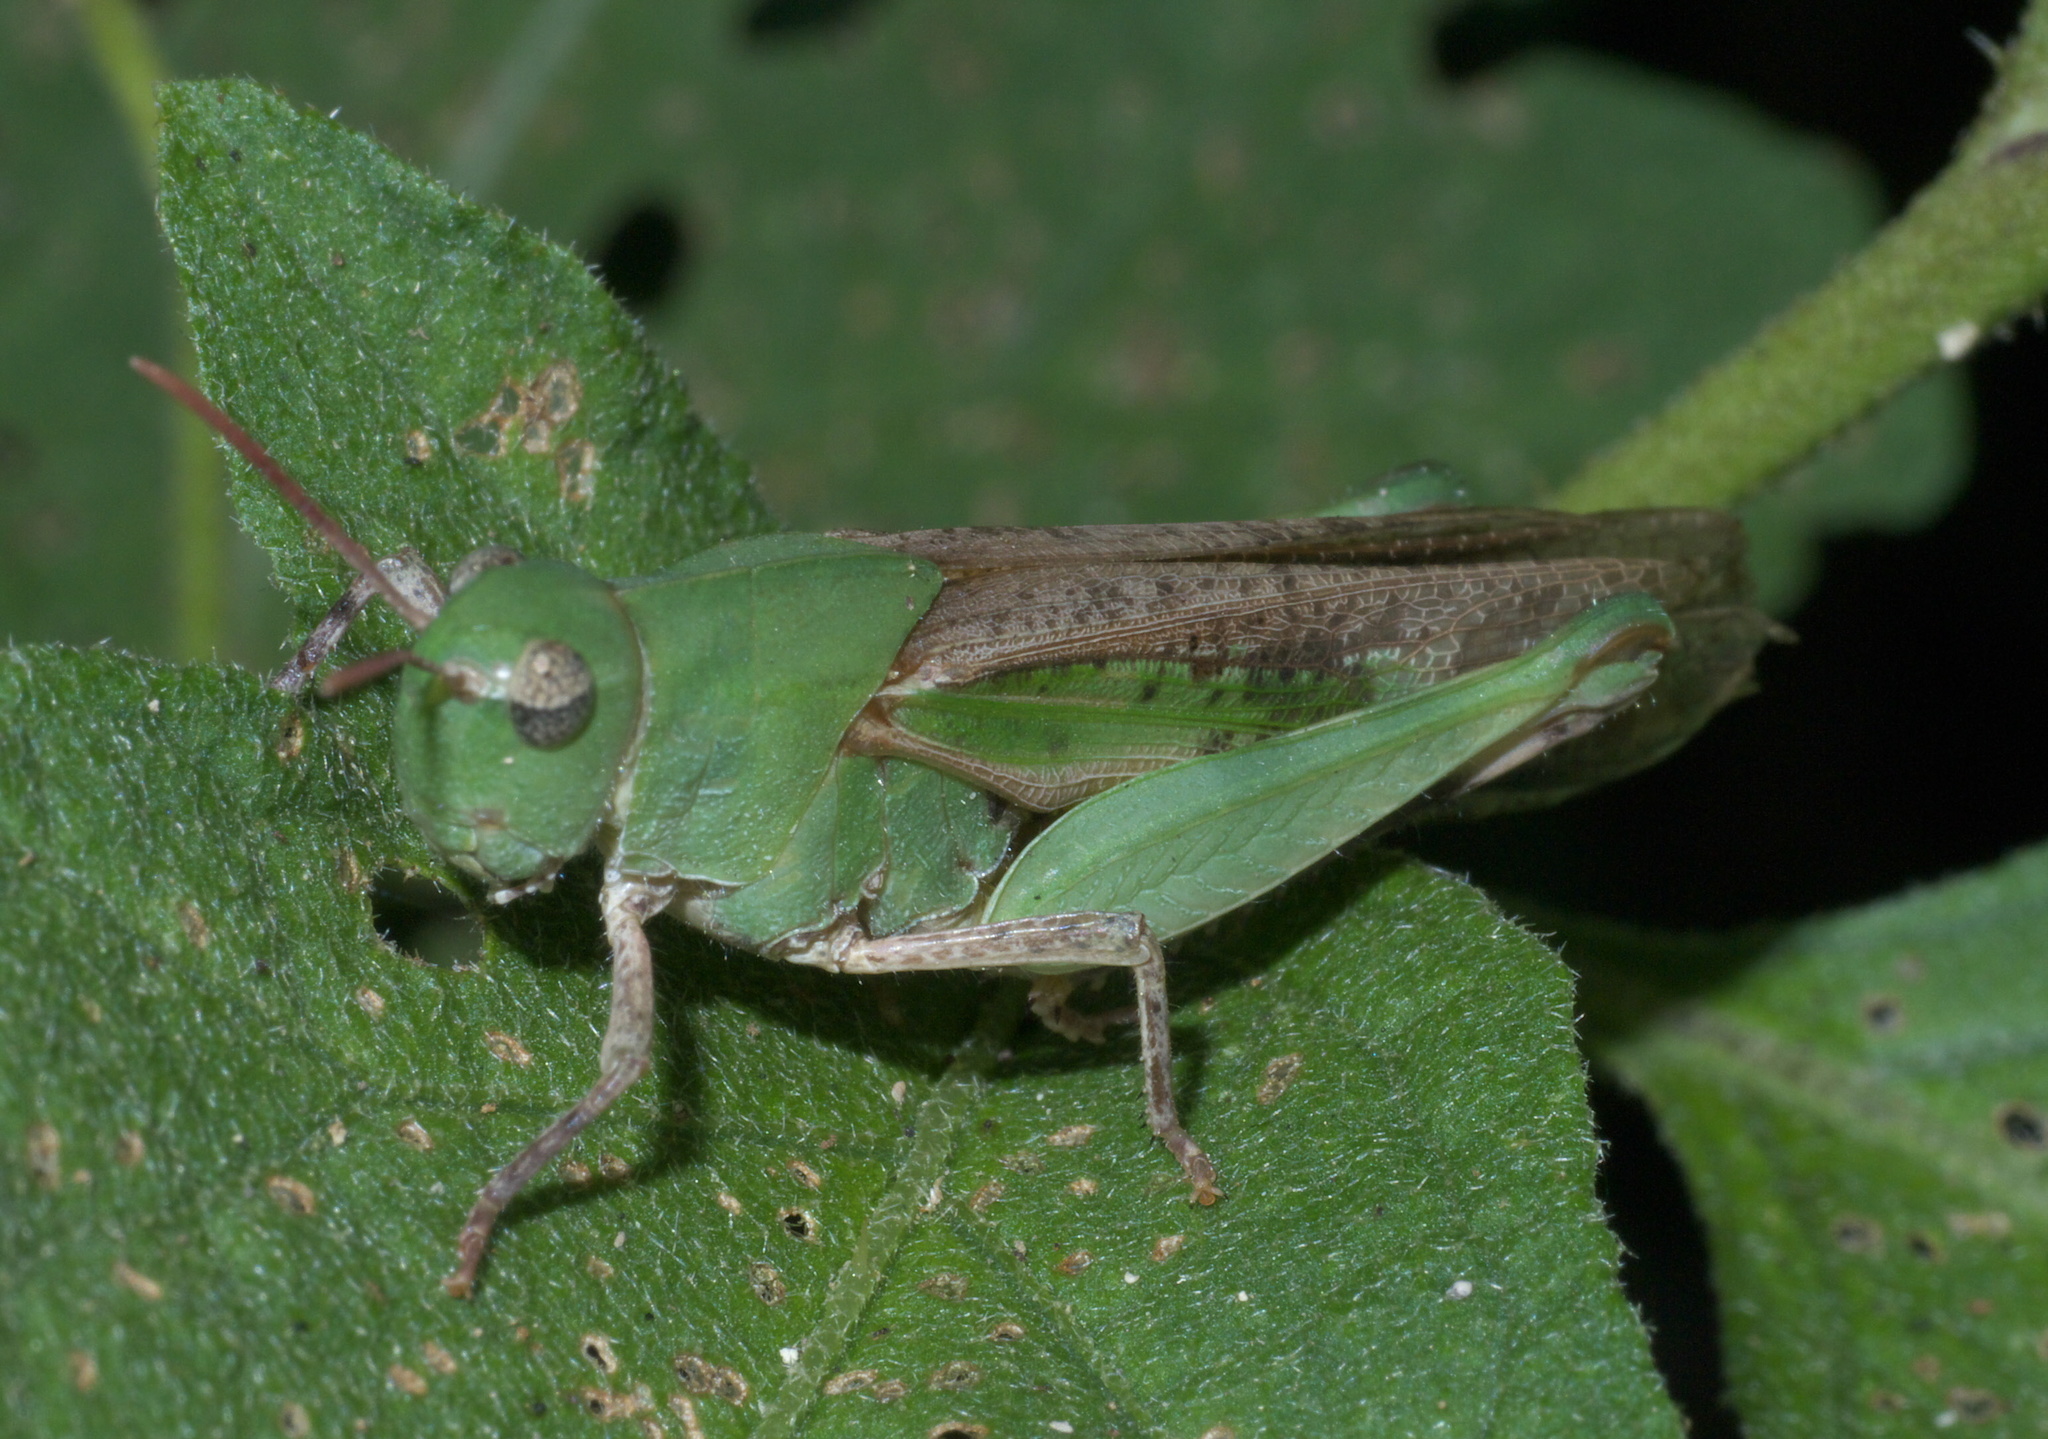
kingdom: Animalia
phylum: Arthropoda
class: Insecta
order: Orthoptera
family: Acrididae
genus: Chortophaga
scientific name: Chortophaga viridifasciata
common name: Green-striped grasshopper
